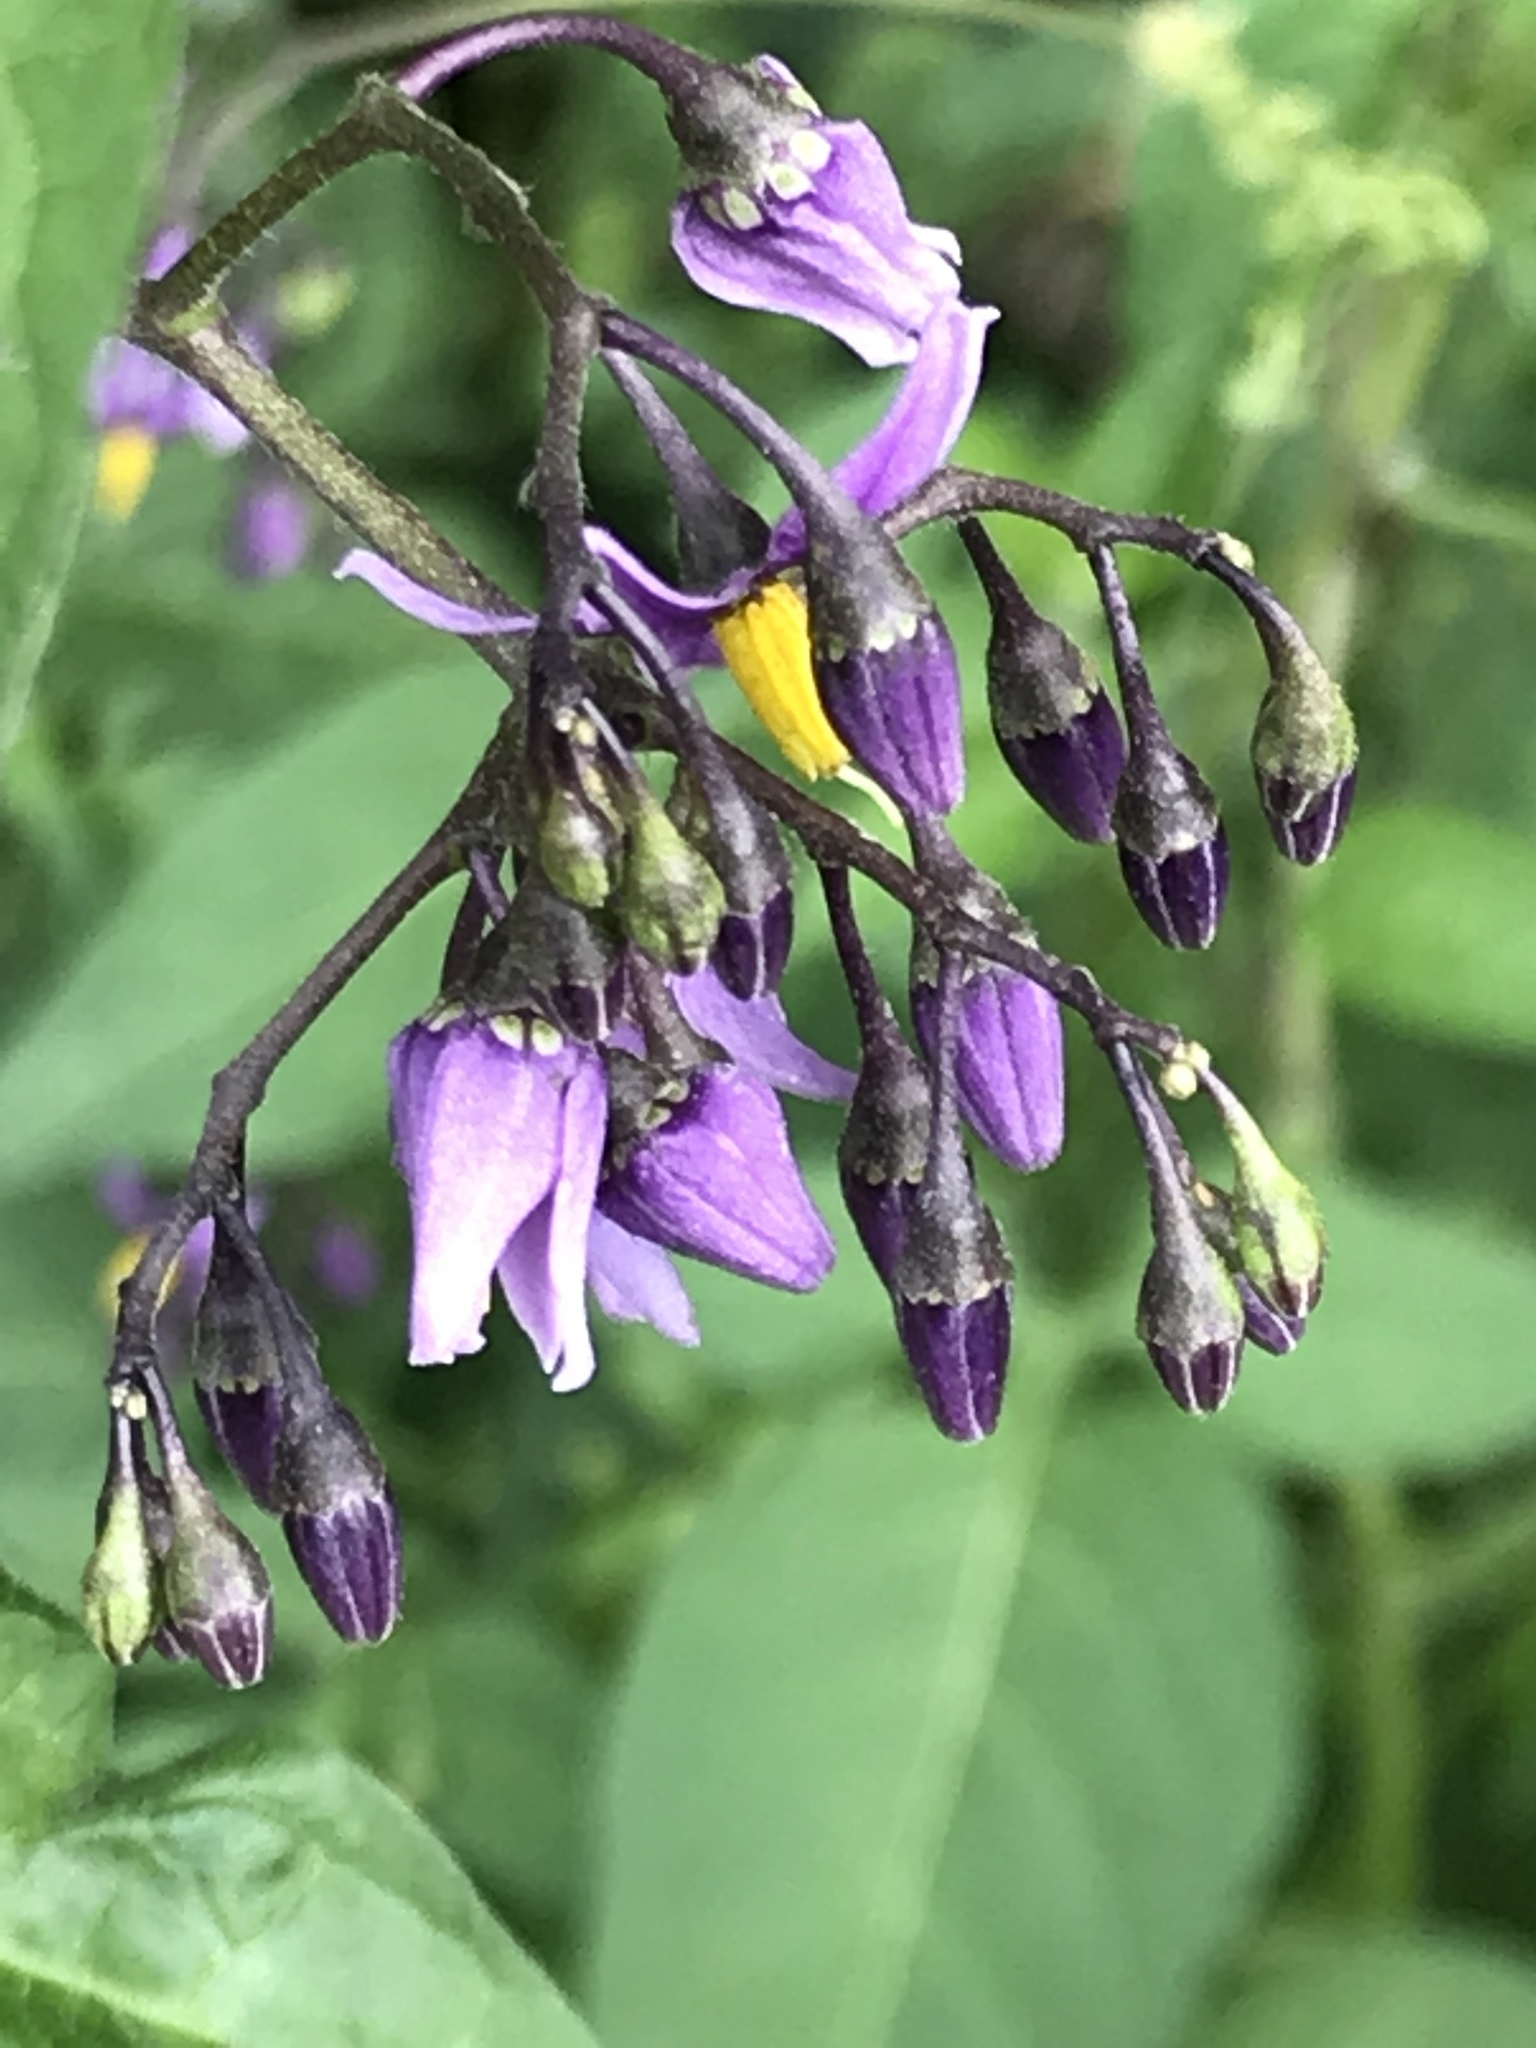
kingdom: Plantae
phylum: Tracheophyta
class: Magnoliopsida
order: Solanales
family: Solanaceae
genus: Solanum
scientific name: Solanum dulcamara
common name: Climbing nightshade
